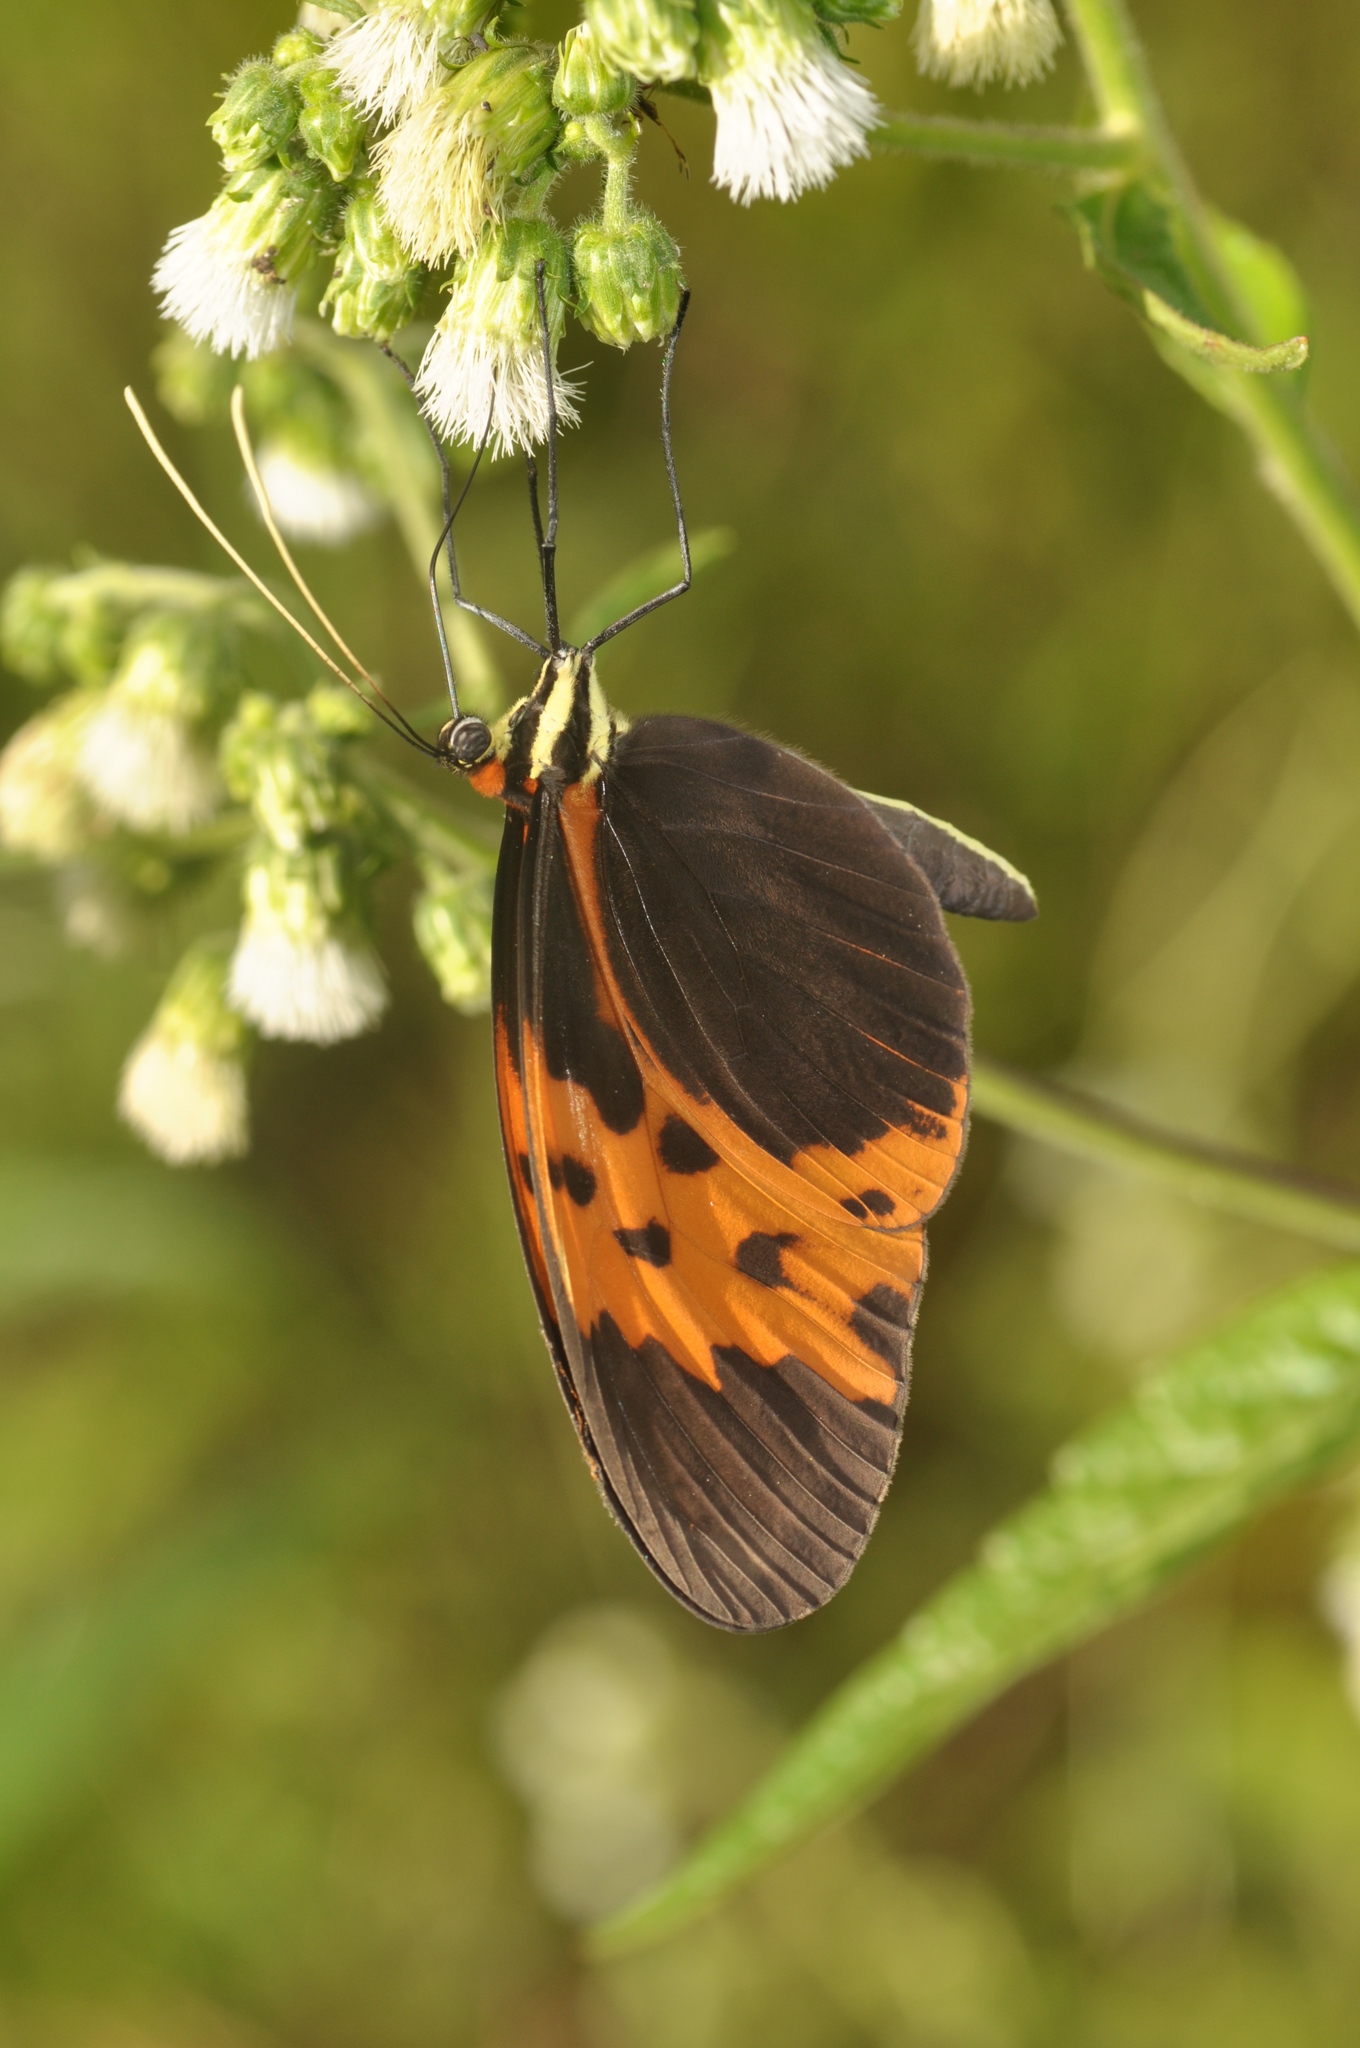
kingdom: Animalia
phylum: Arthropoda
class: Insecta
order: Lepidoptera
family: Nymphalidae
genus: Melinaea
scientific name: Melinaea marsaeus
